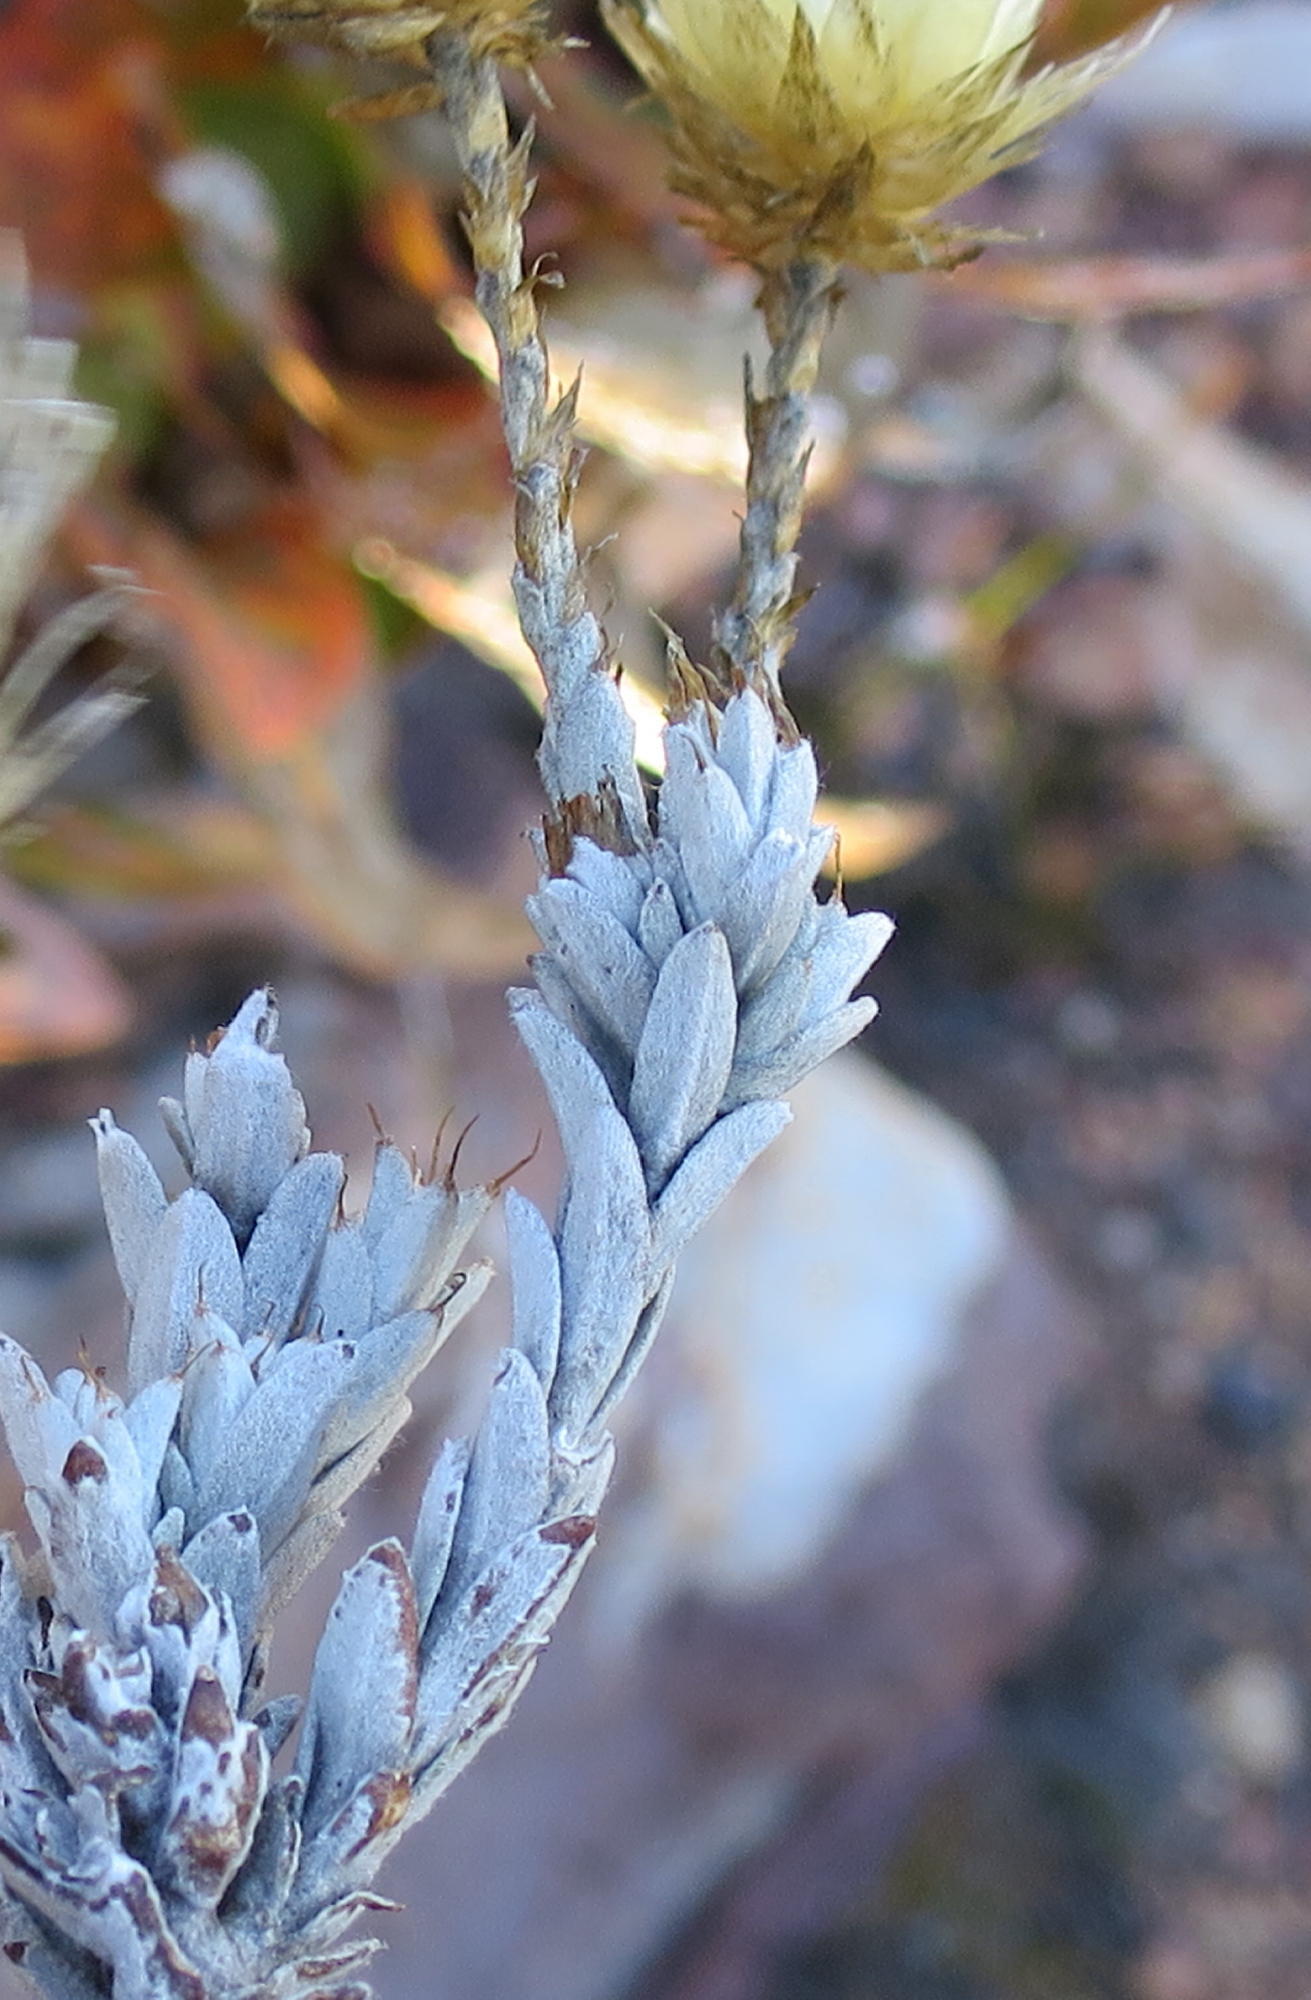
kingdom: Plantae
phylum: Tracheophyta
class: Magnoliopsida
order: Asterales
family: Asteraceae
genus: Syncarpha
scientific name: Syncarpha virgata
